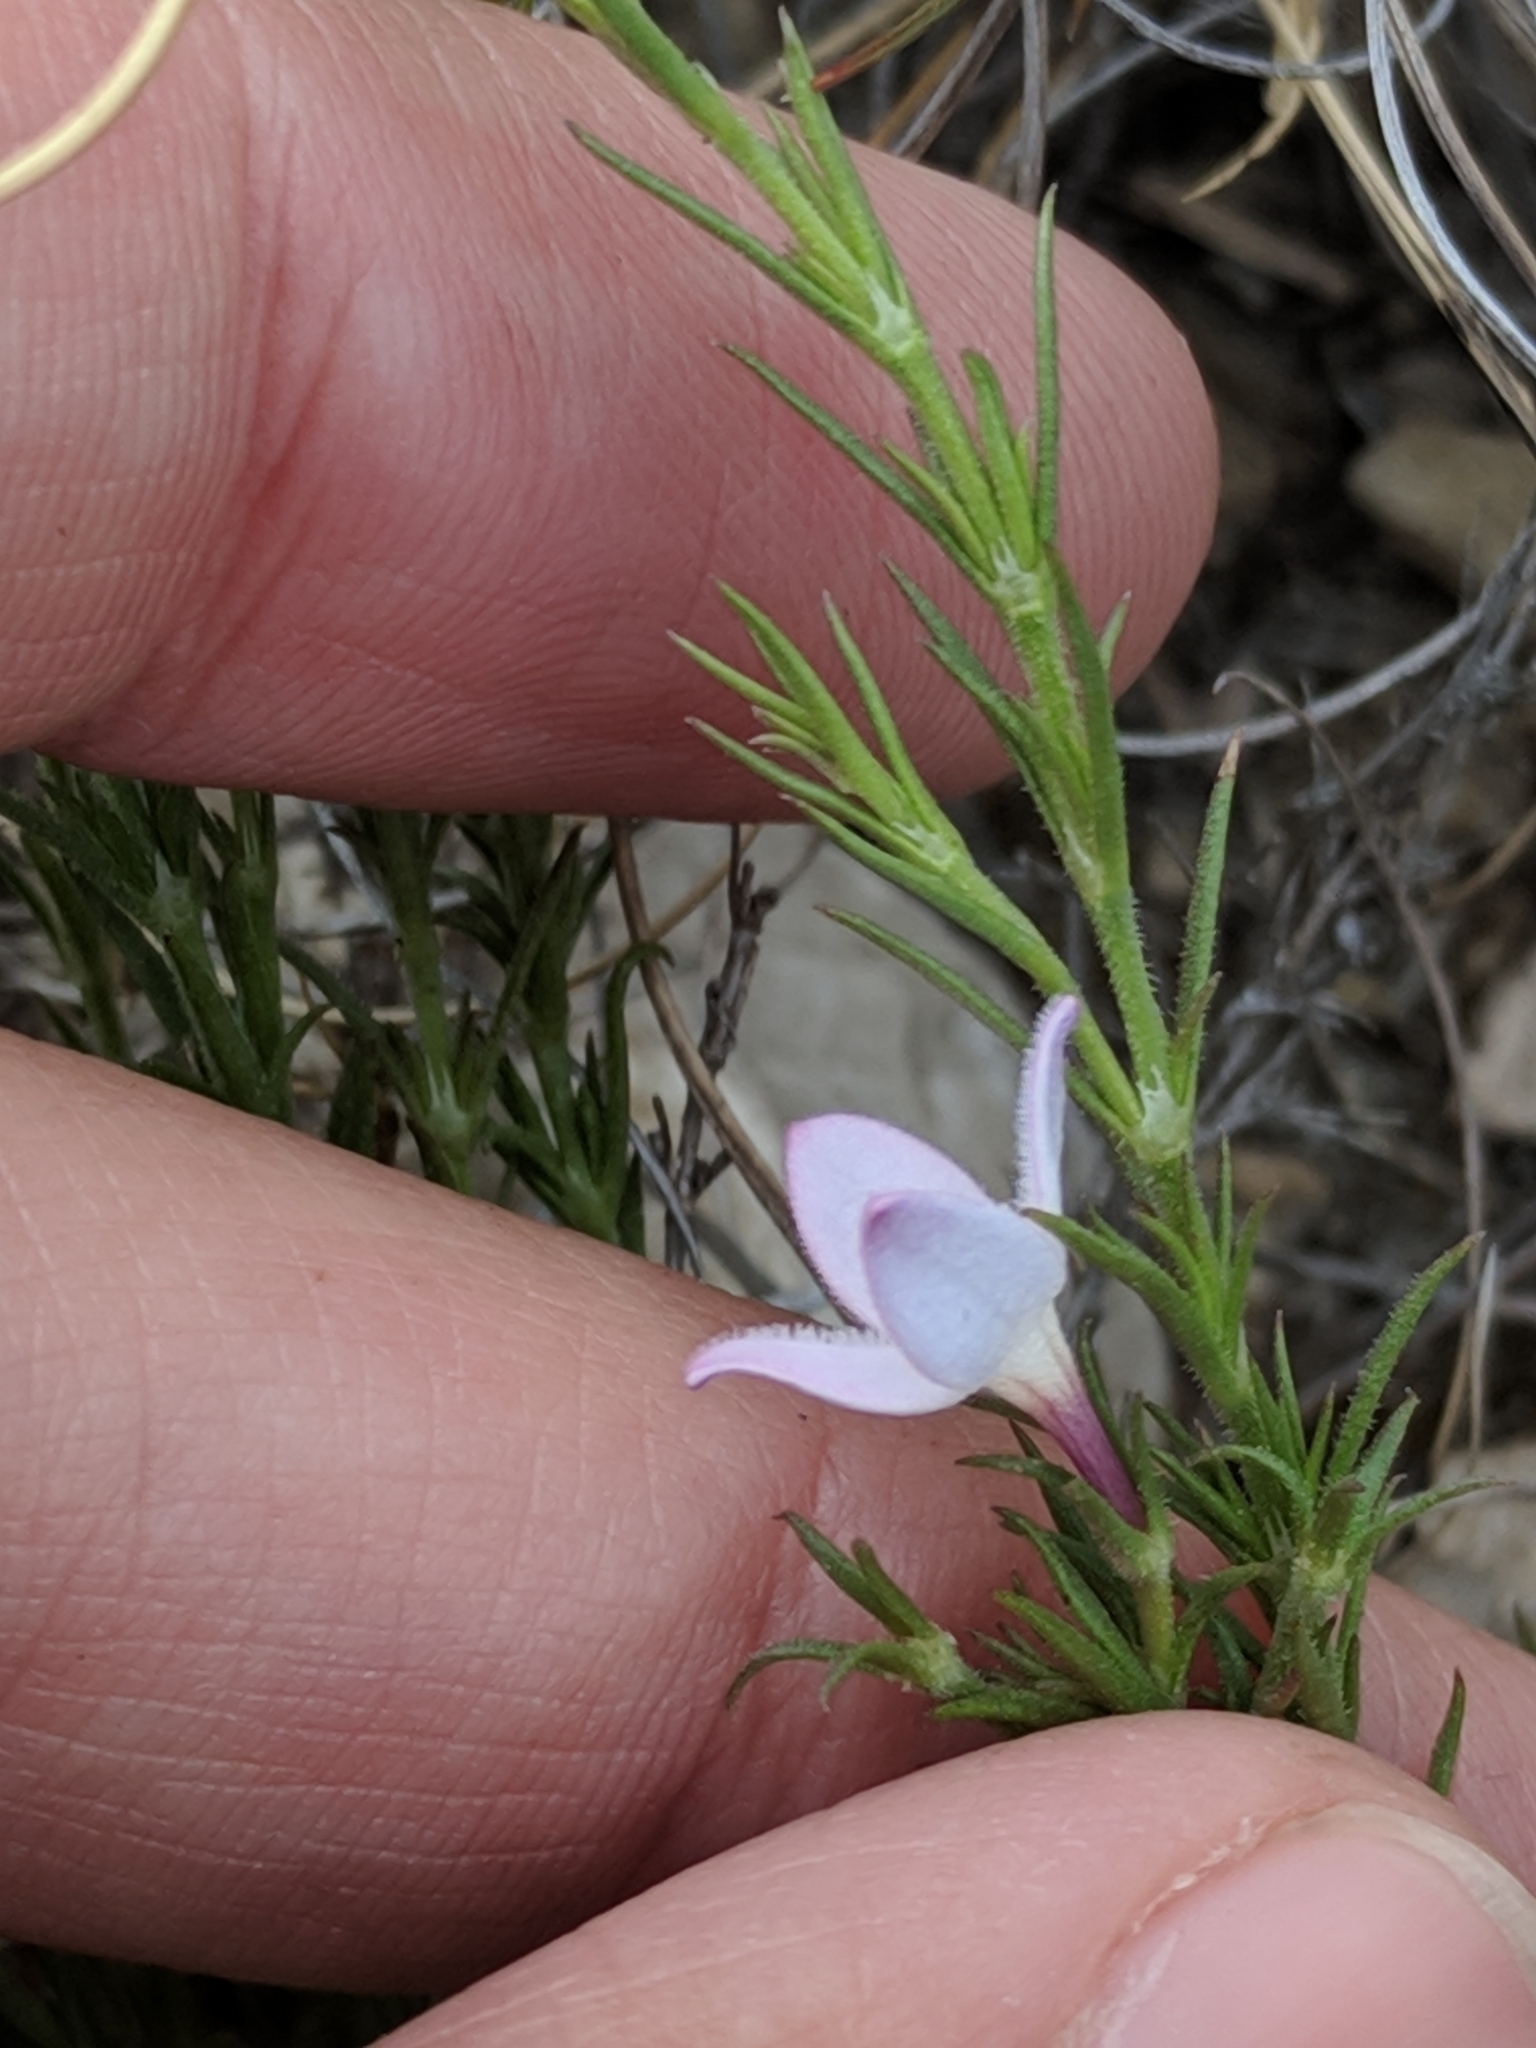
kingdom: Plantae
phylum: Tracheophyta
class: Magnoliopsida
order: Gentianales
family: Rubiaceae
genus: Houstonia
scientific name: Houstonia acerosa
